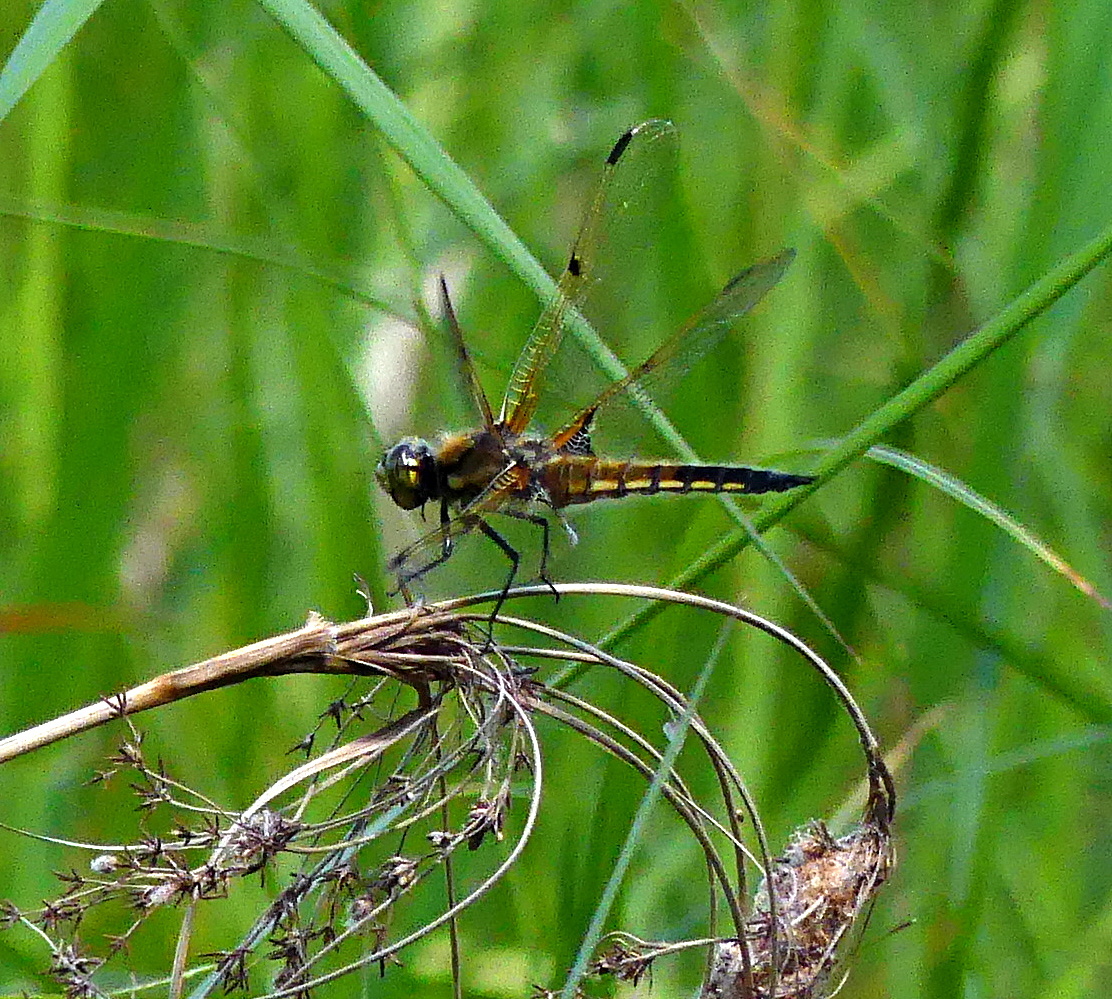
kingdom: Animalia
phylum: Arthropoda
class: Insecta
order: Odonata
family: Libellulidae
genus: Libellula
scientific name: Libellula quadrimaculata
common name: Four-spotted chaser
